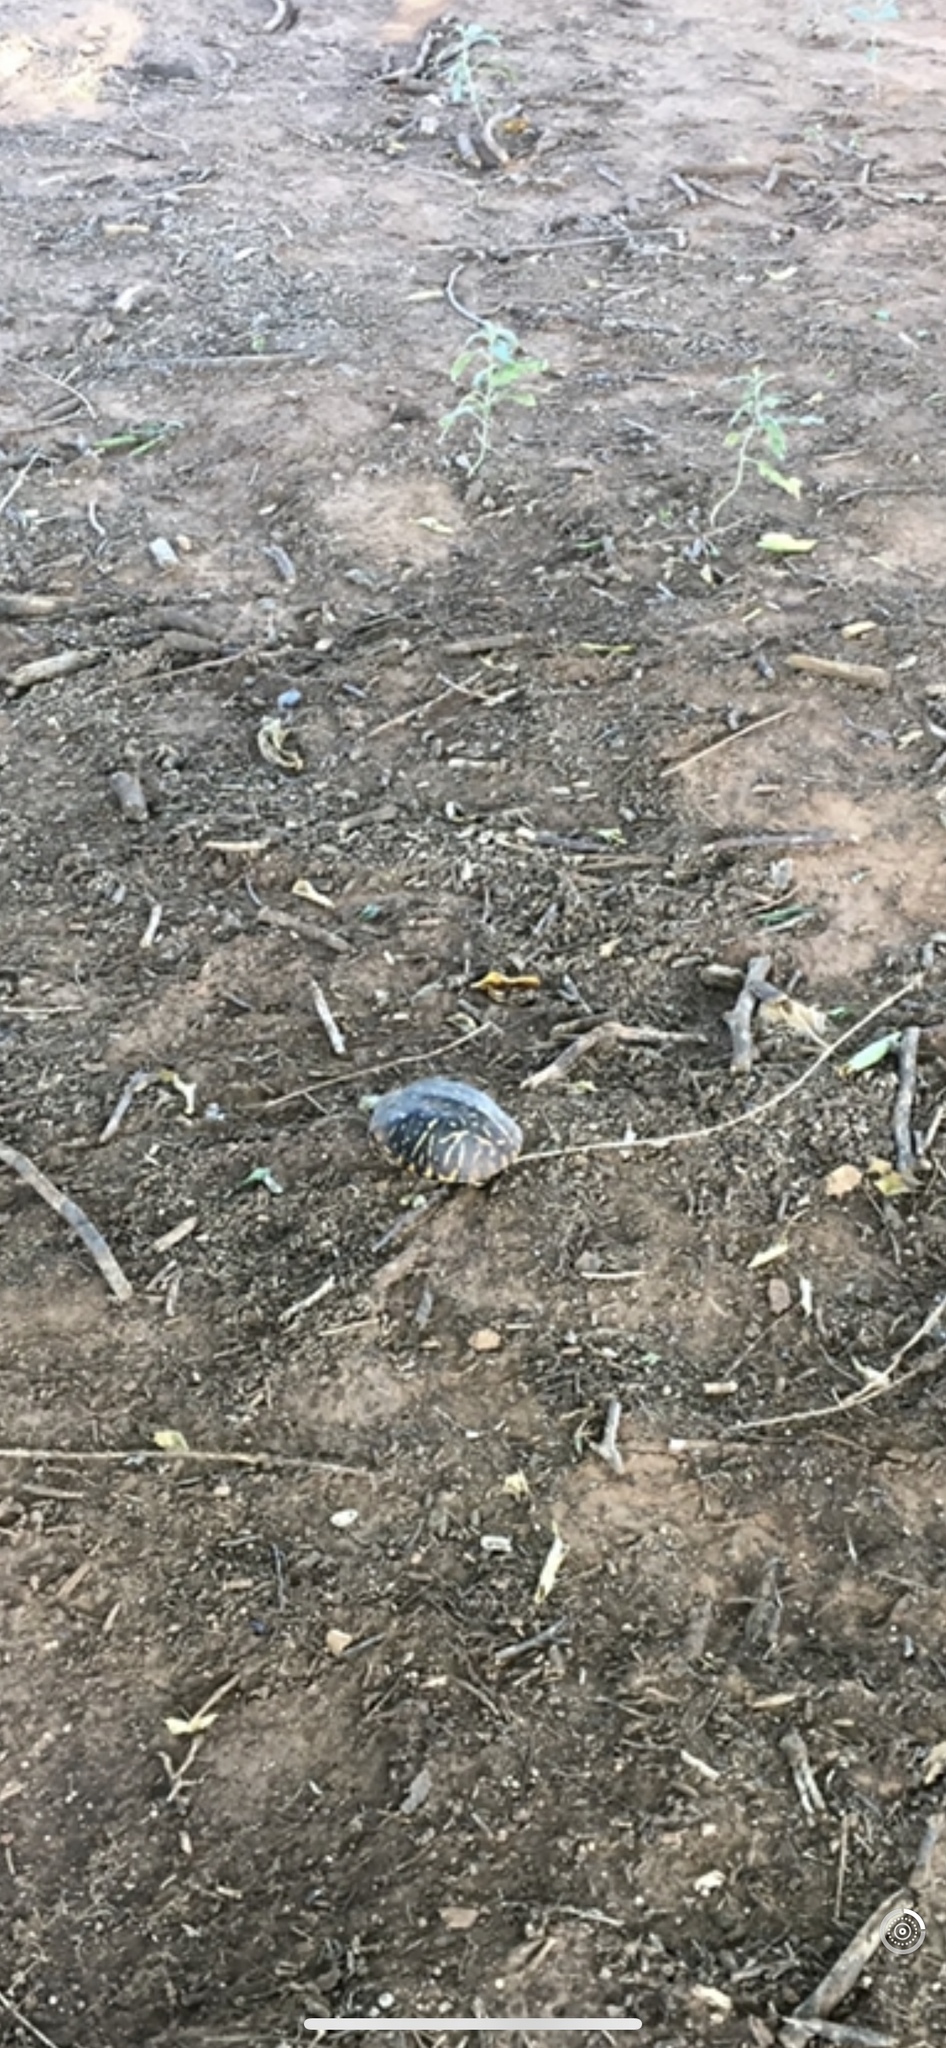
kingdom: Animalia
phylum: Chordata
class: Testudines
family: Emydidae
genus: Terrapene
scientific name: Terrapene ornata
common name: Western box turtle
